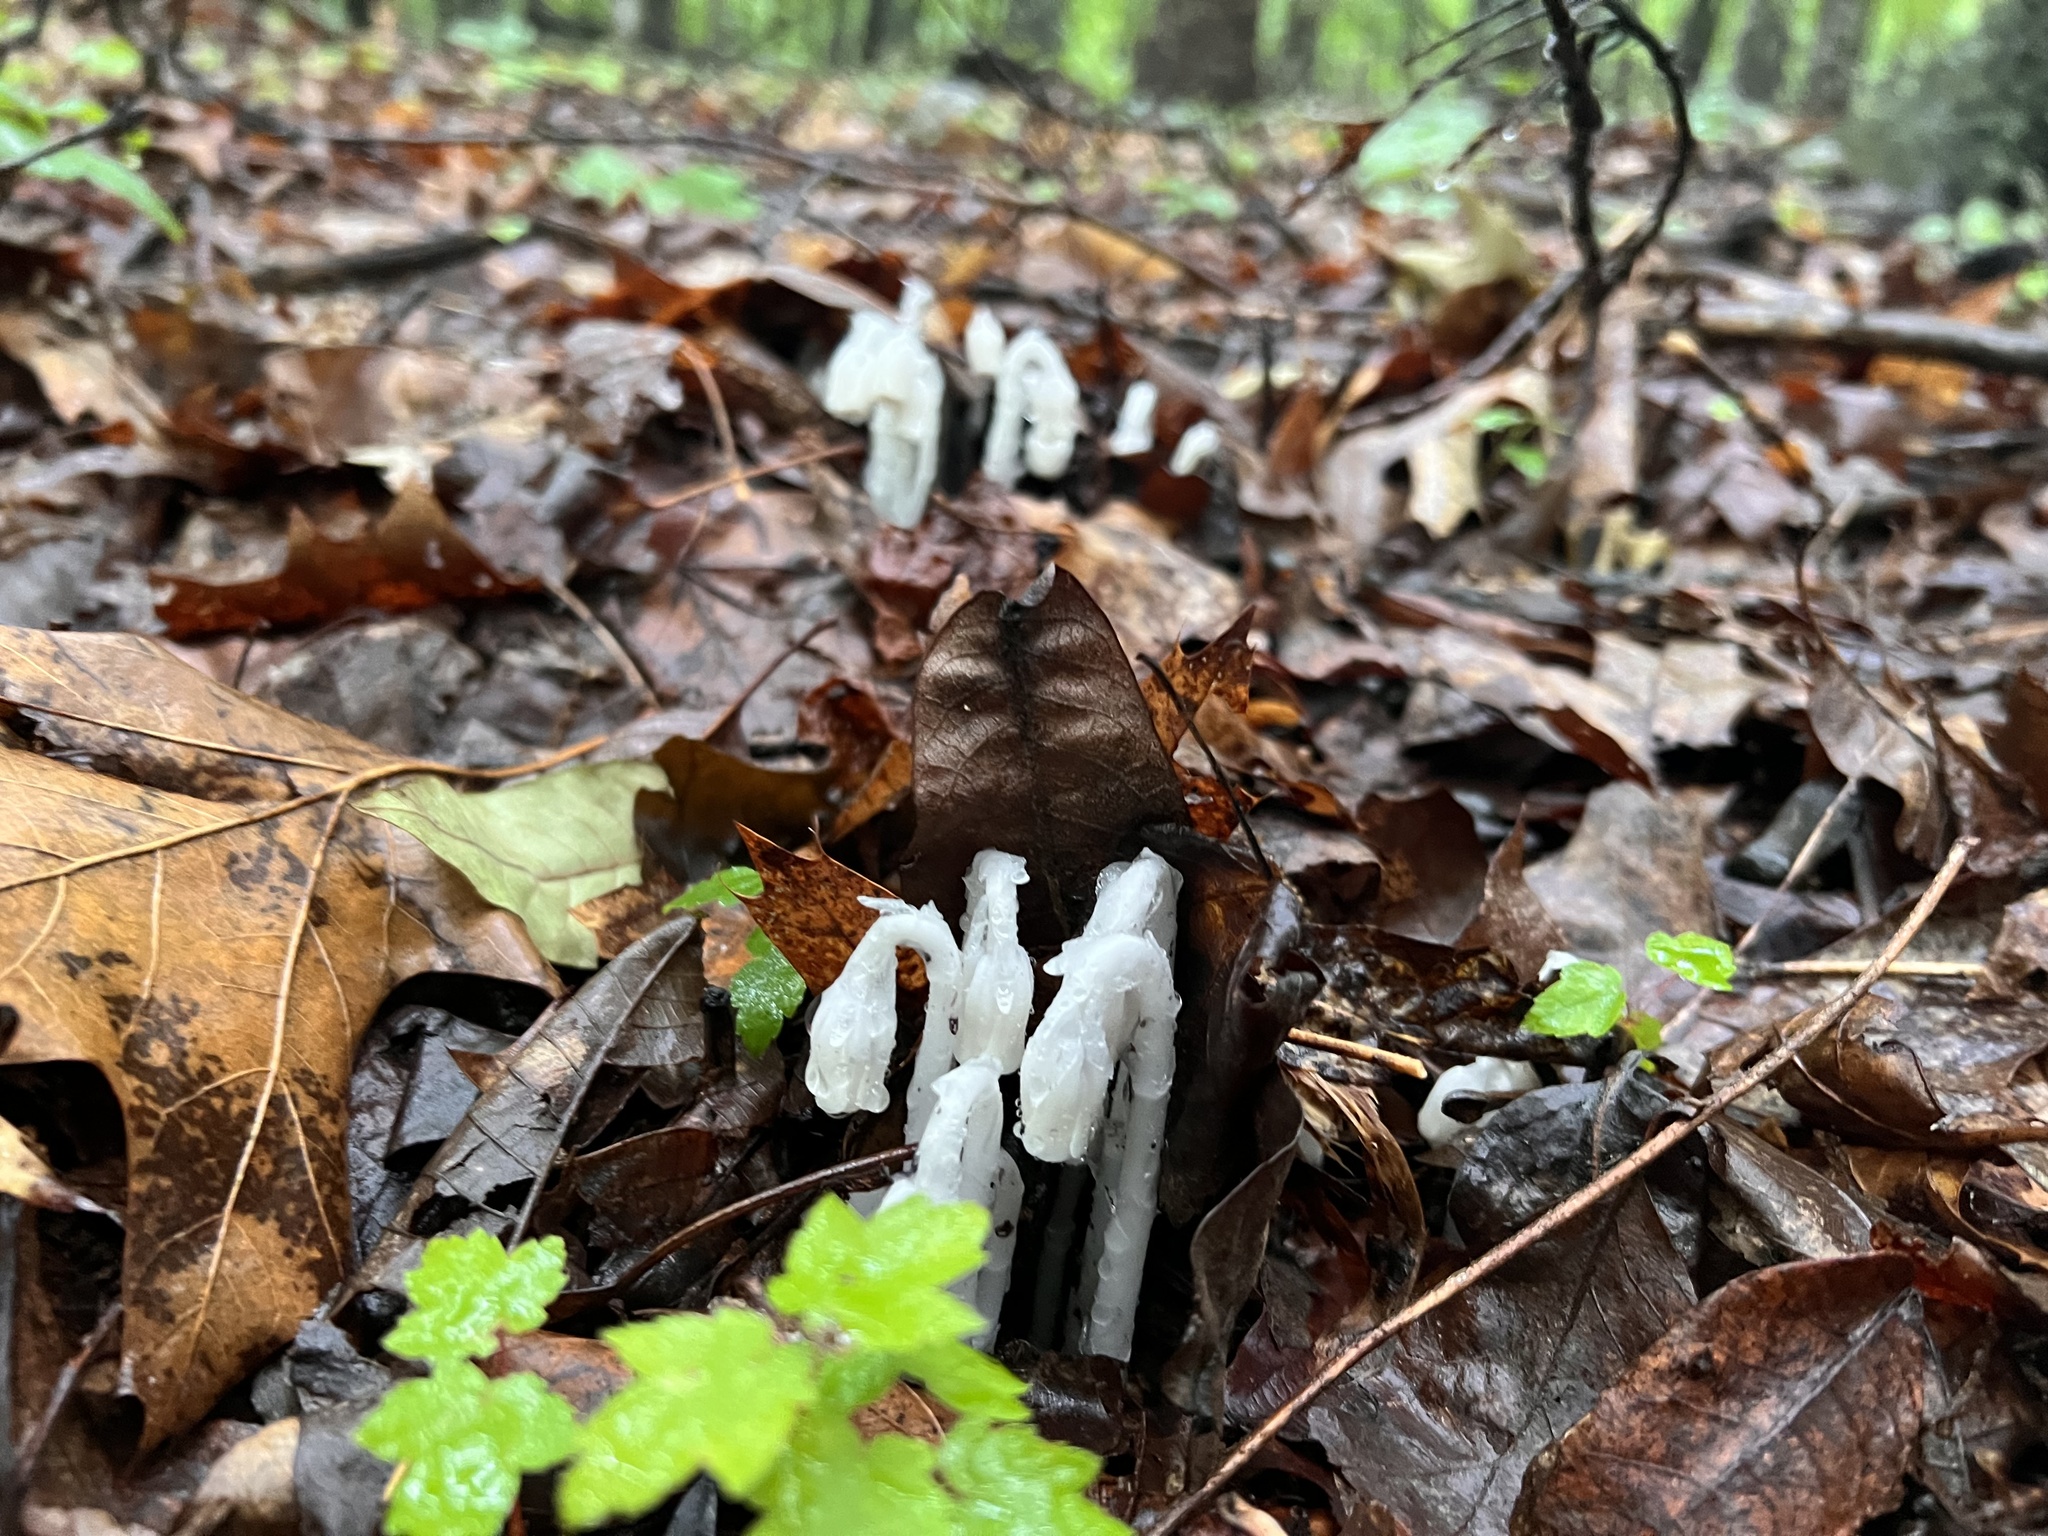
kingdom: Plantae
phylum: Tracheophyta
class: Magnoliopsida
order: Ericales
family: Ericaceae
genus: Monotropa
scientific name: Monotropa uniflora
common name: Convulsion root
